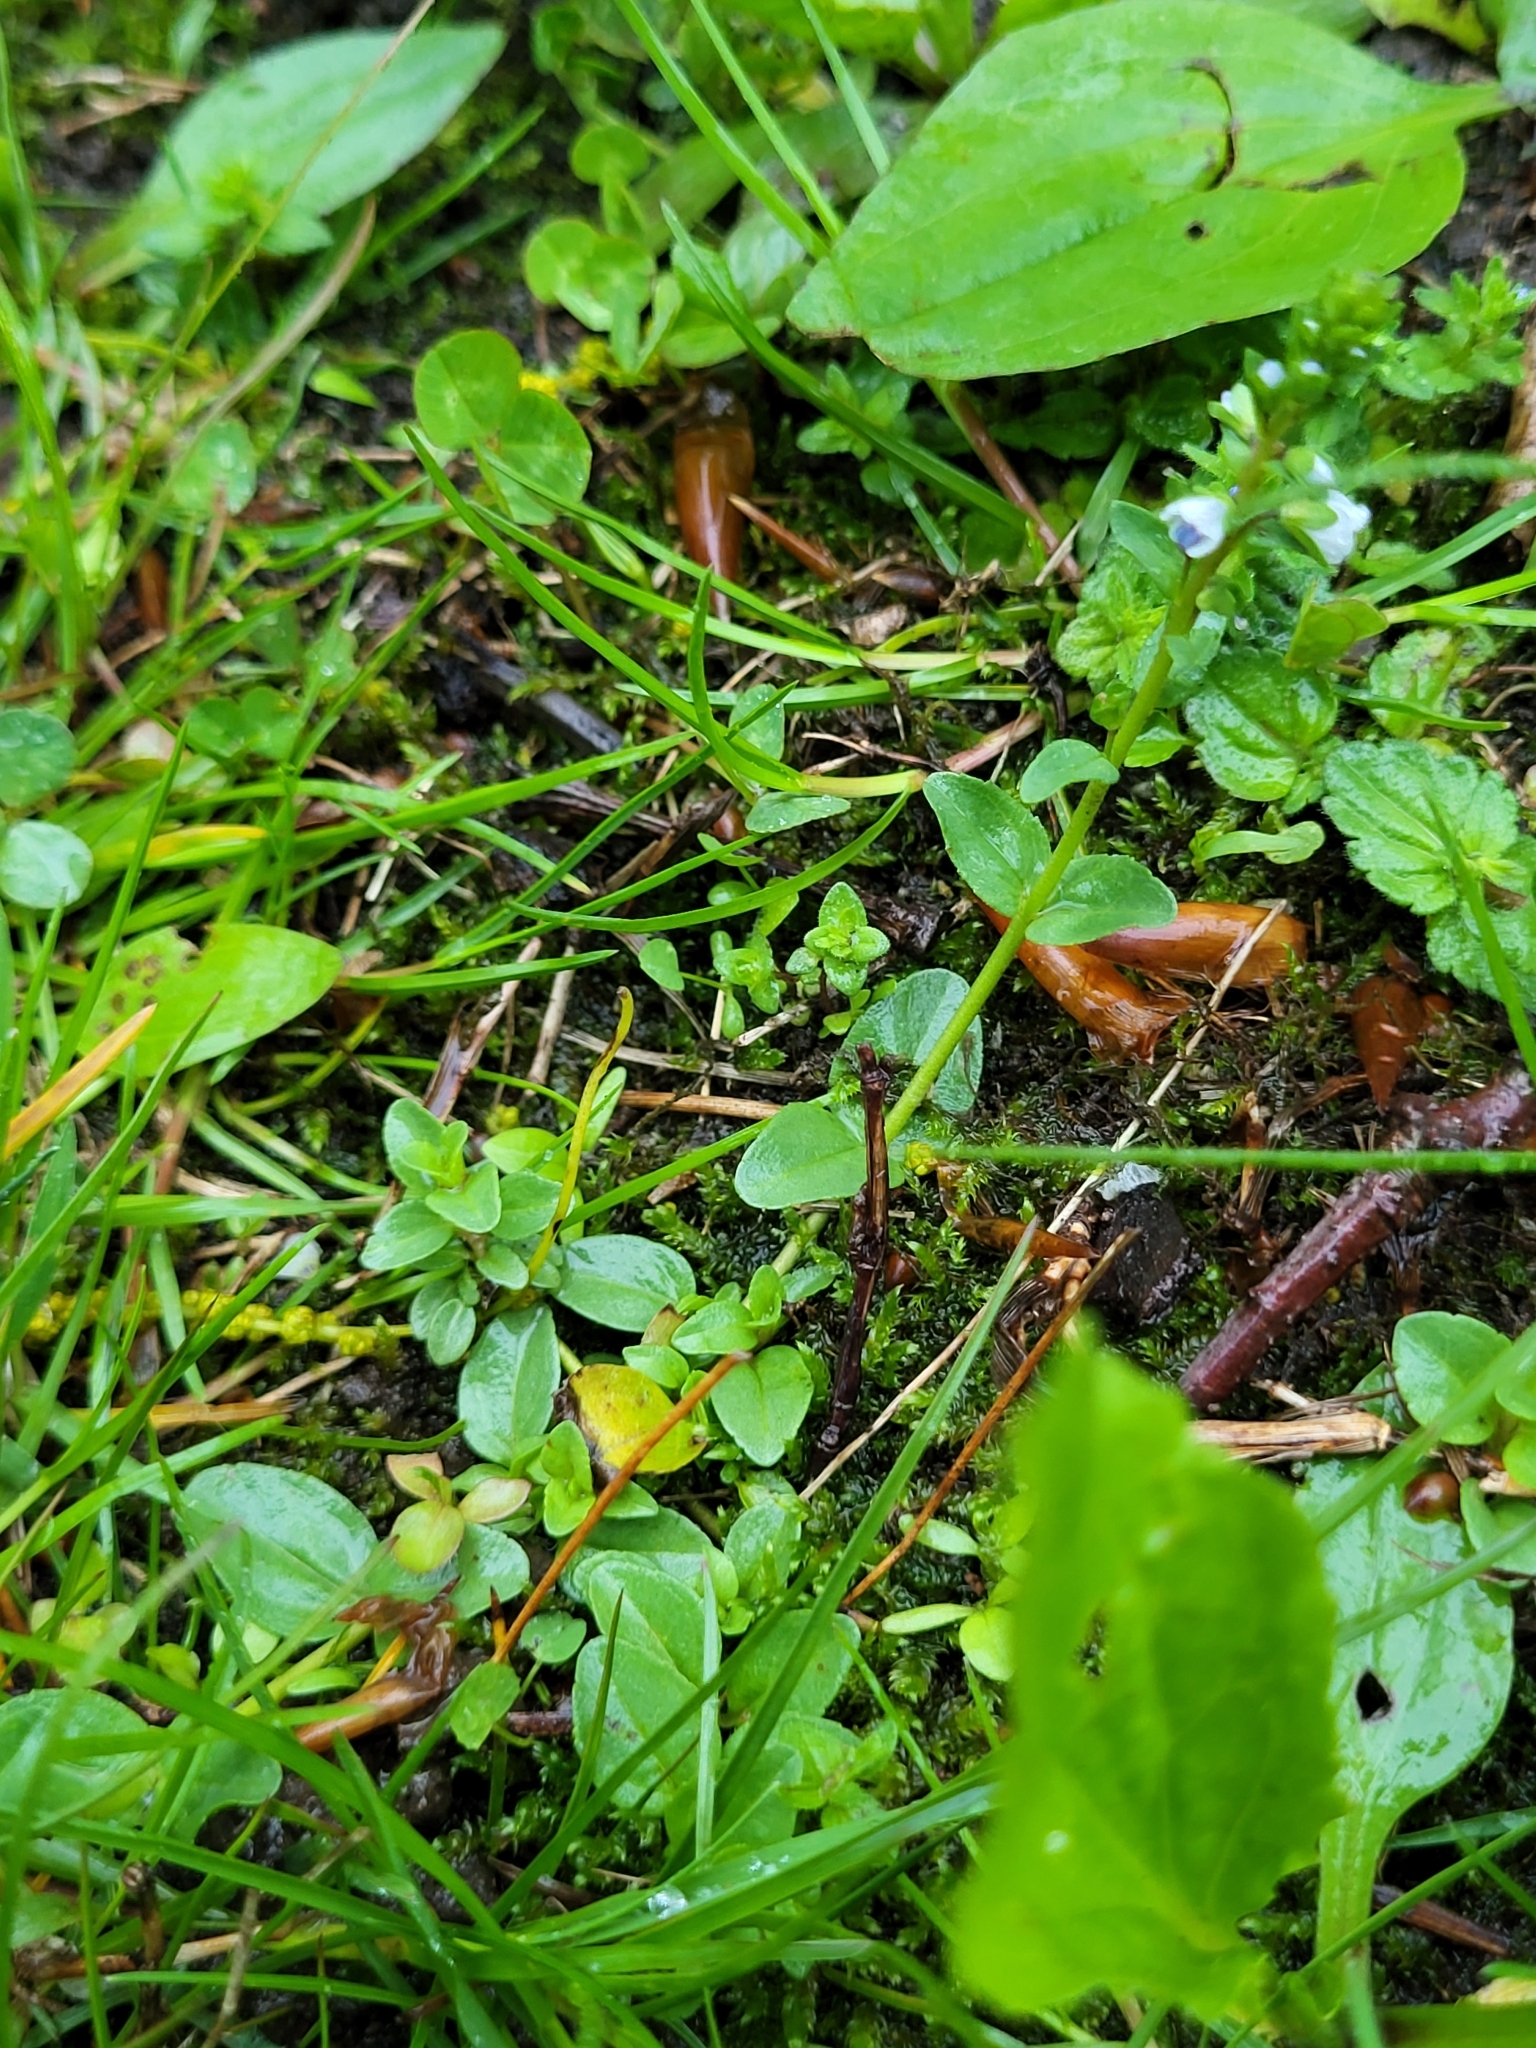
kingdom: Plantae
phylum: Tracheophyta
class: Magnoliopsida
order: Lamiales
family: Plantaginaceae
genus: Veronica
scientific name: Veronica serpyllifolia
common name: Thyme-leaved speedwell
